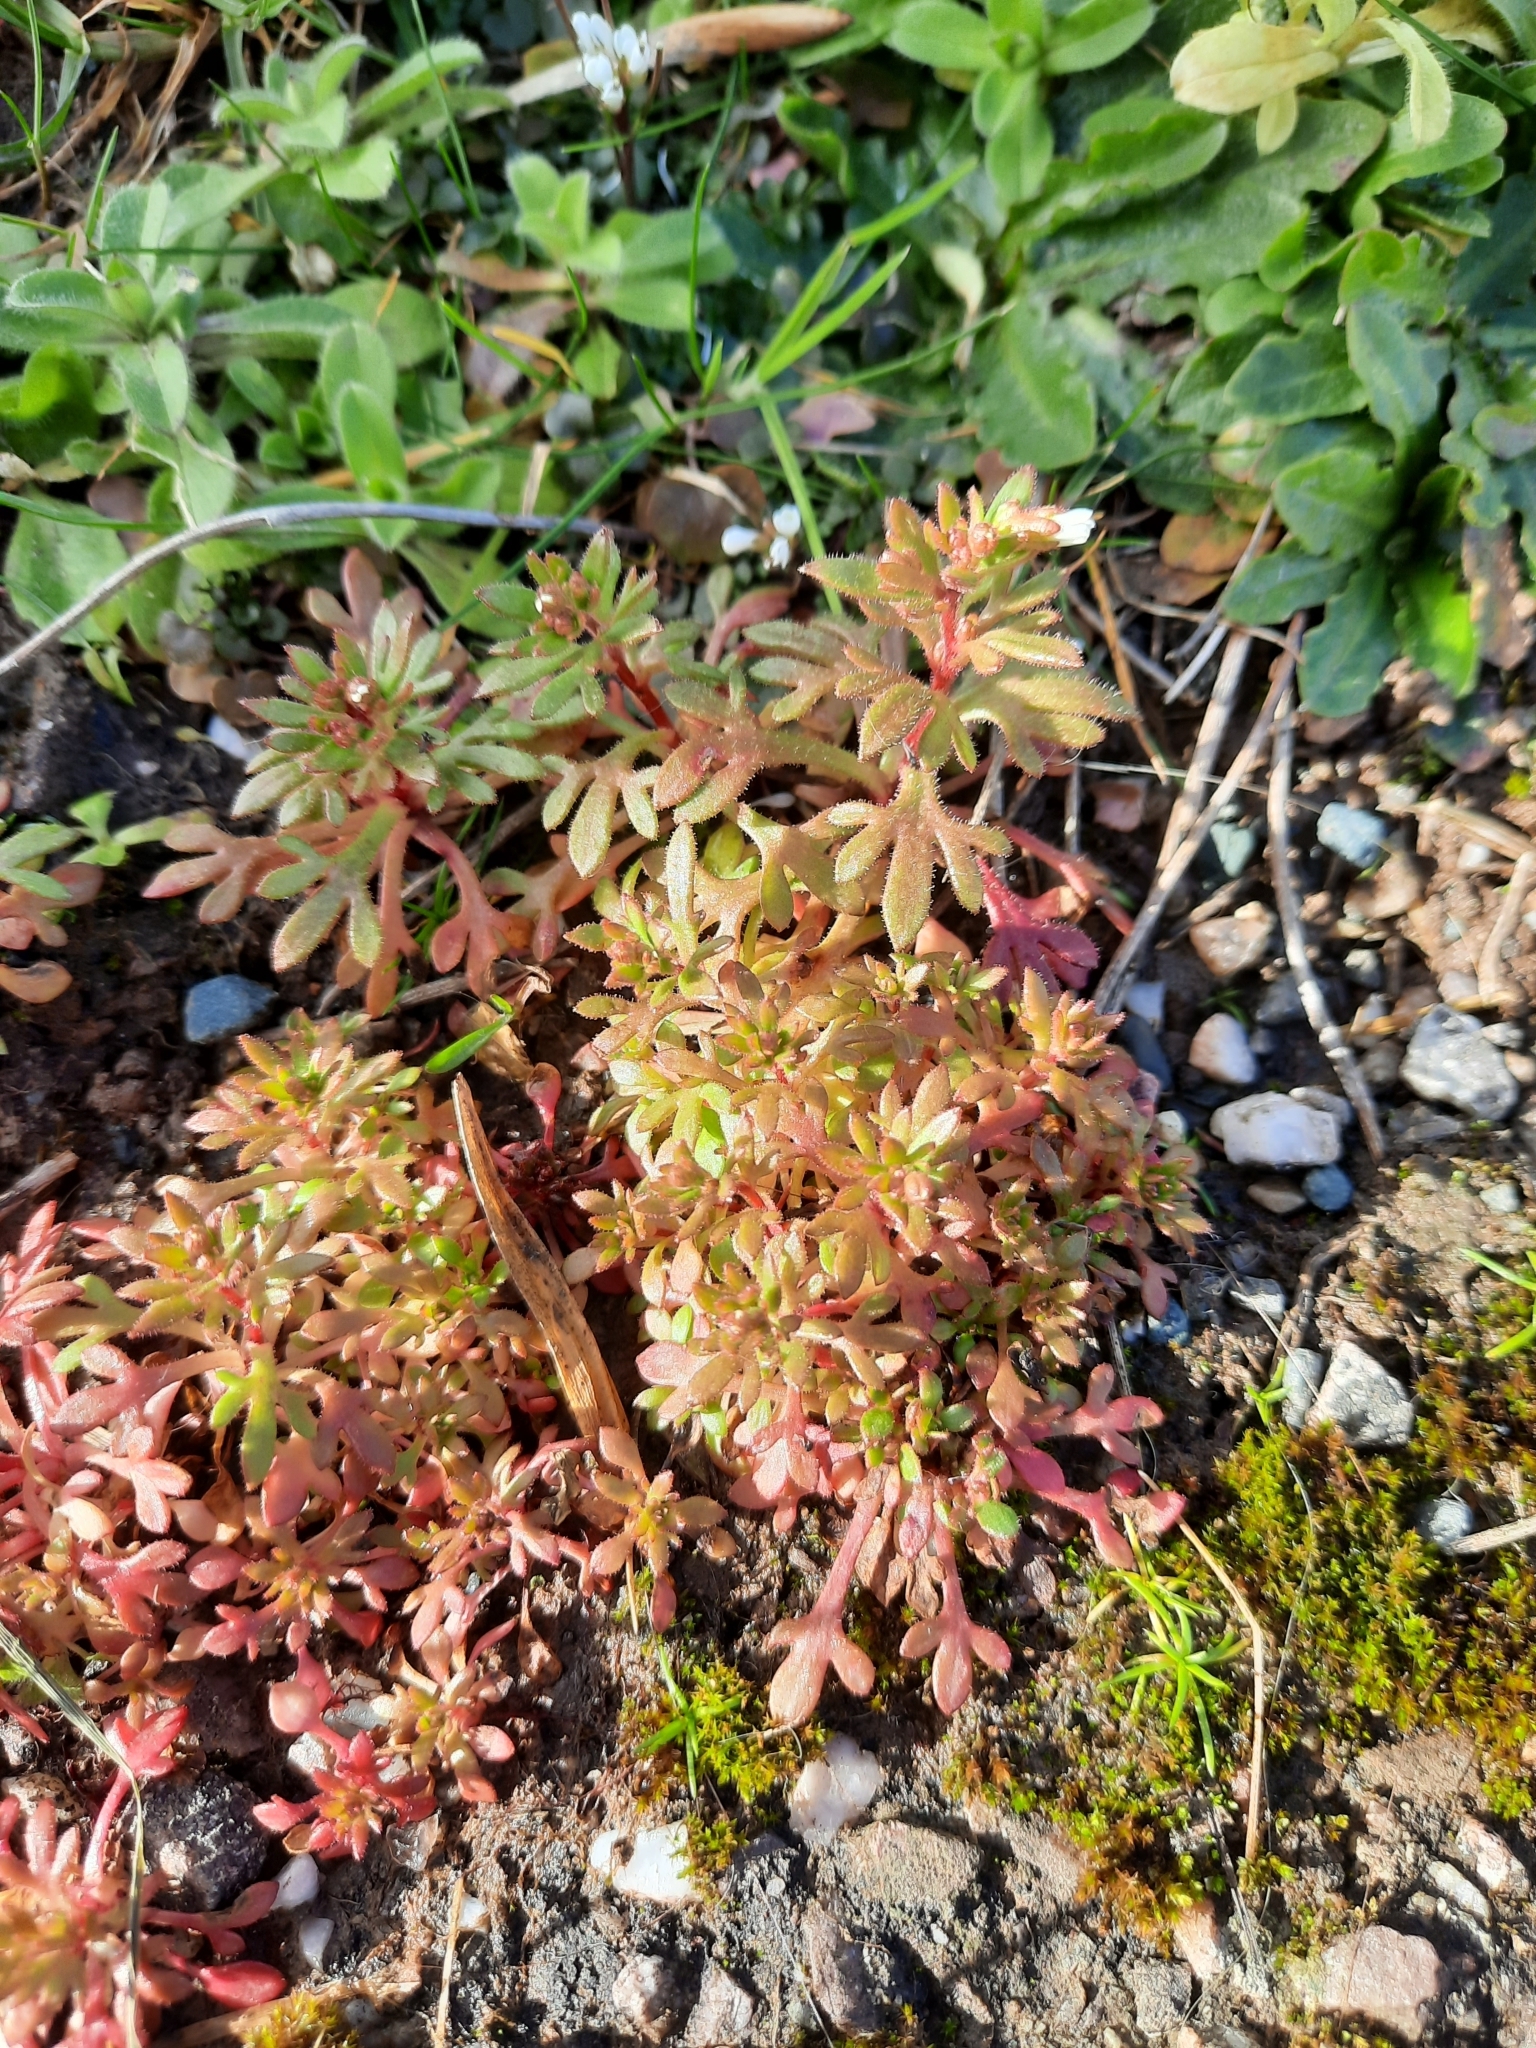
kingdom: Plantae
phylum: Tracheophyta
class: Magnoliopsida
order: Saxifragales
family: Saxifragaceae
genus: Saxifraga
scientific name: Saxifraga tridactylites
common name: Rue-leaved saxifrage
